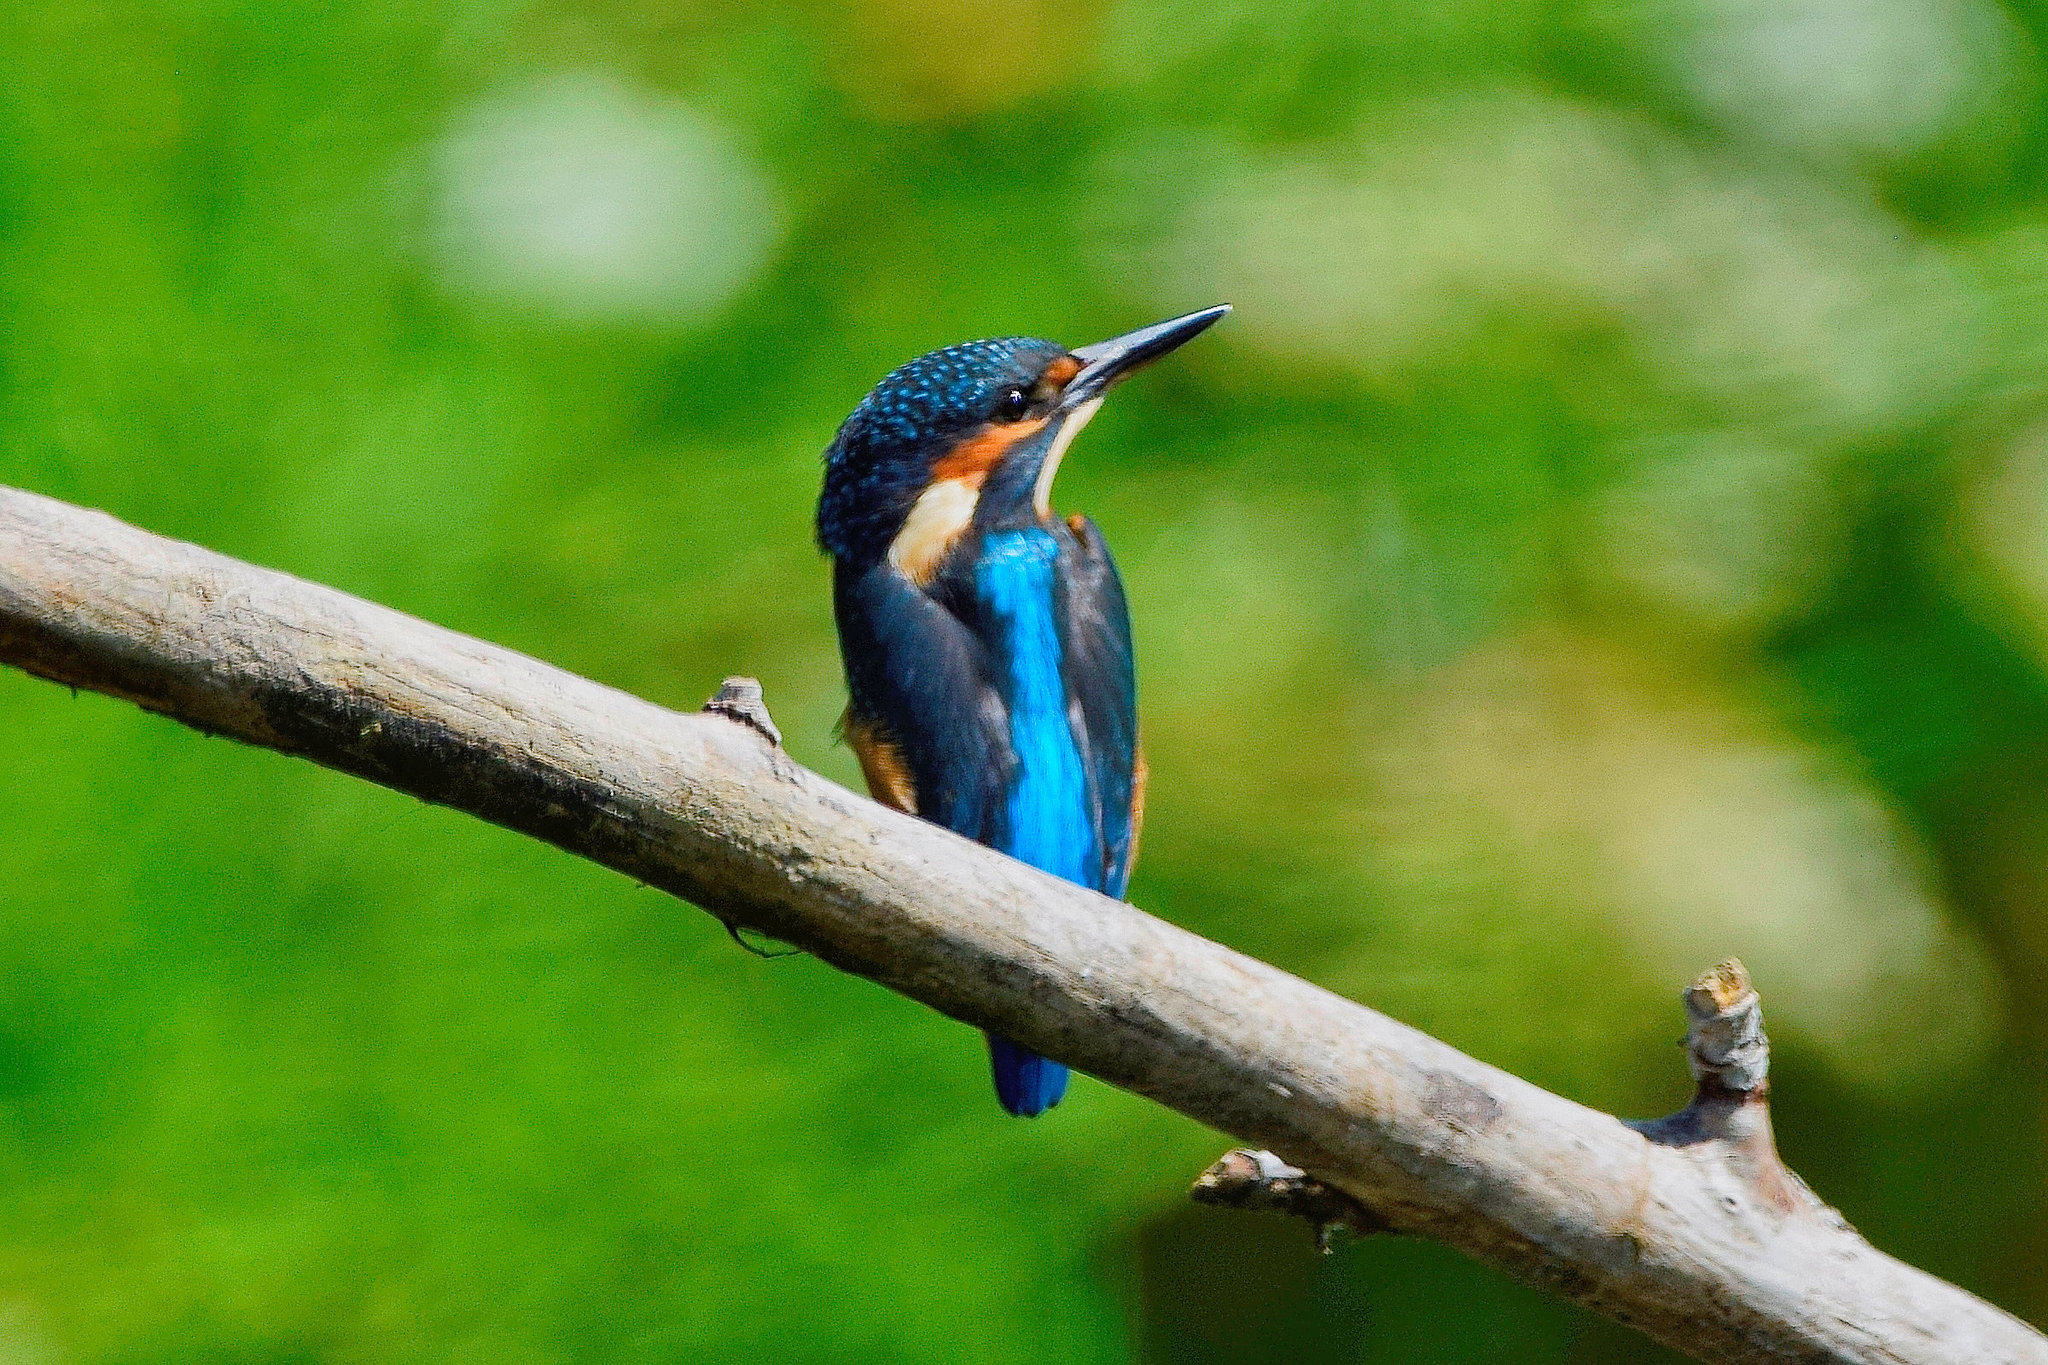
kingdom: Animalia
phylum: Chordata
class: Aves
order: Coraciiformes
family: Alcedinidae
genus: Alcedo
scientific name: Alcedo atthis
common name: Common kingfisher
